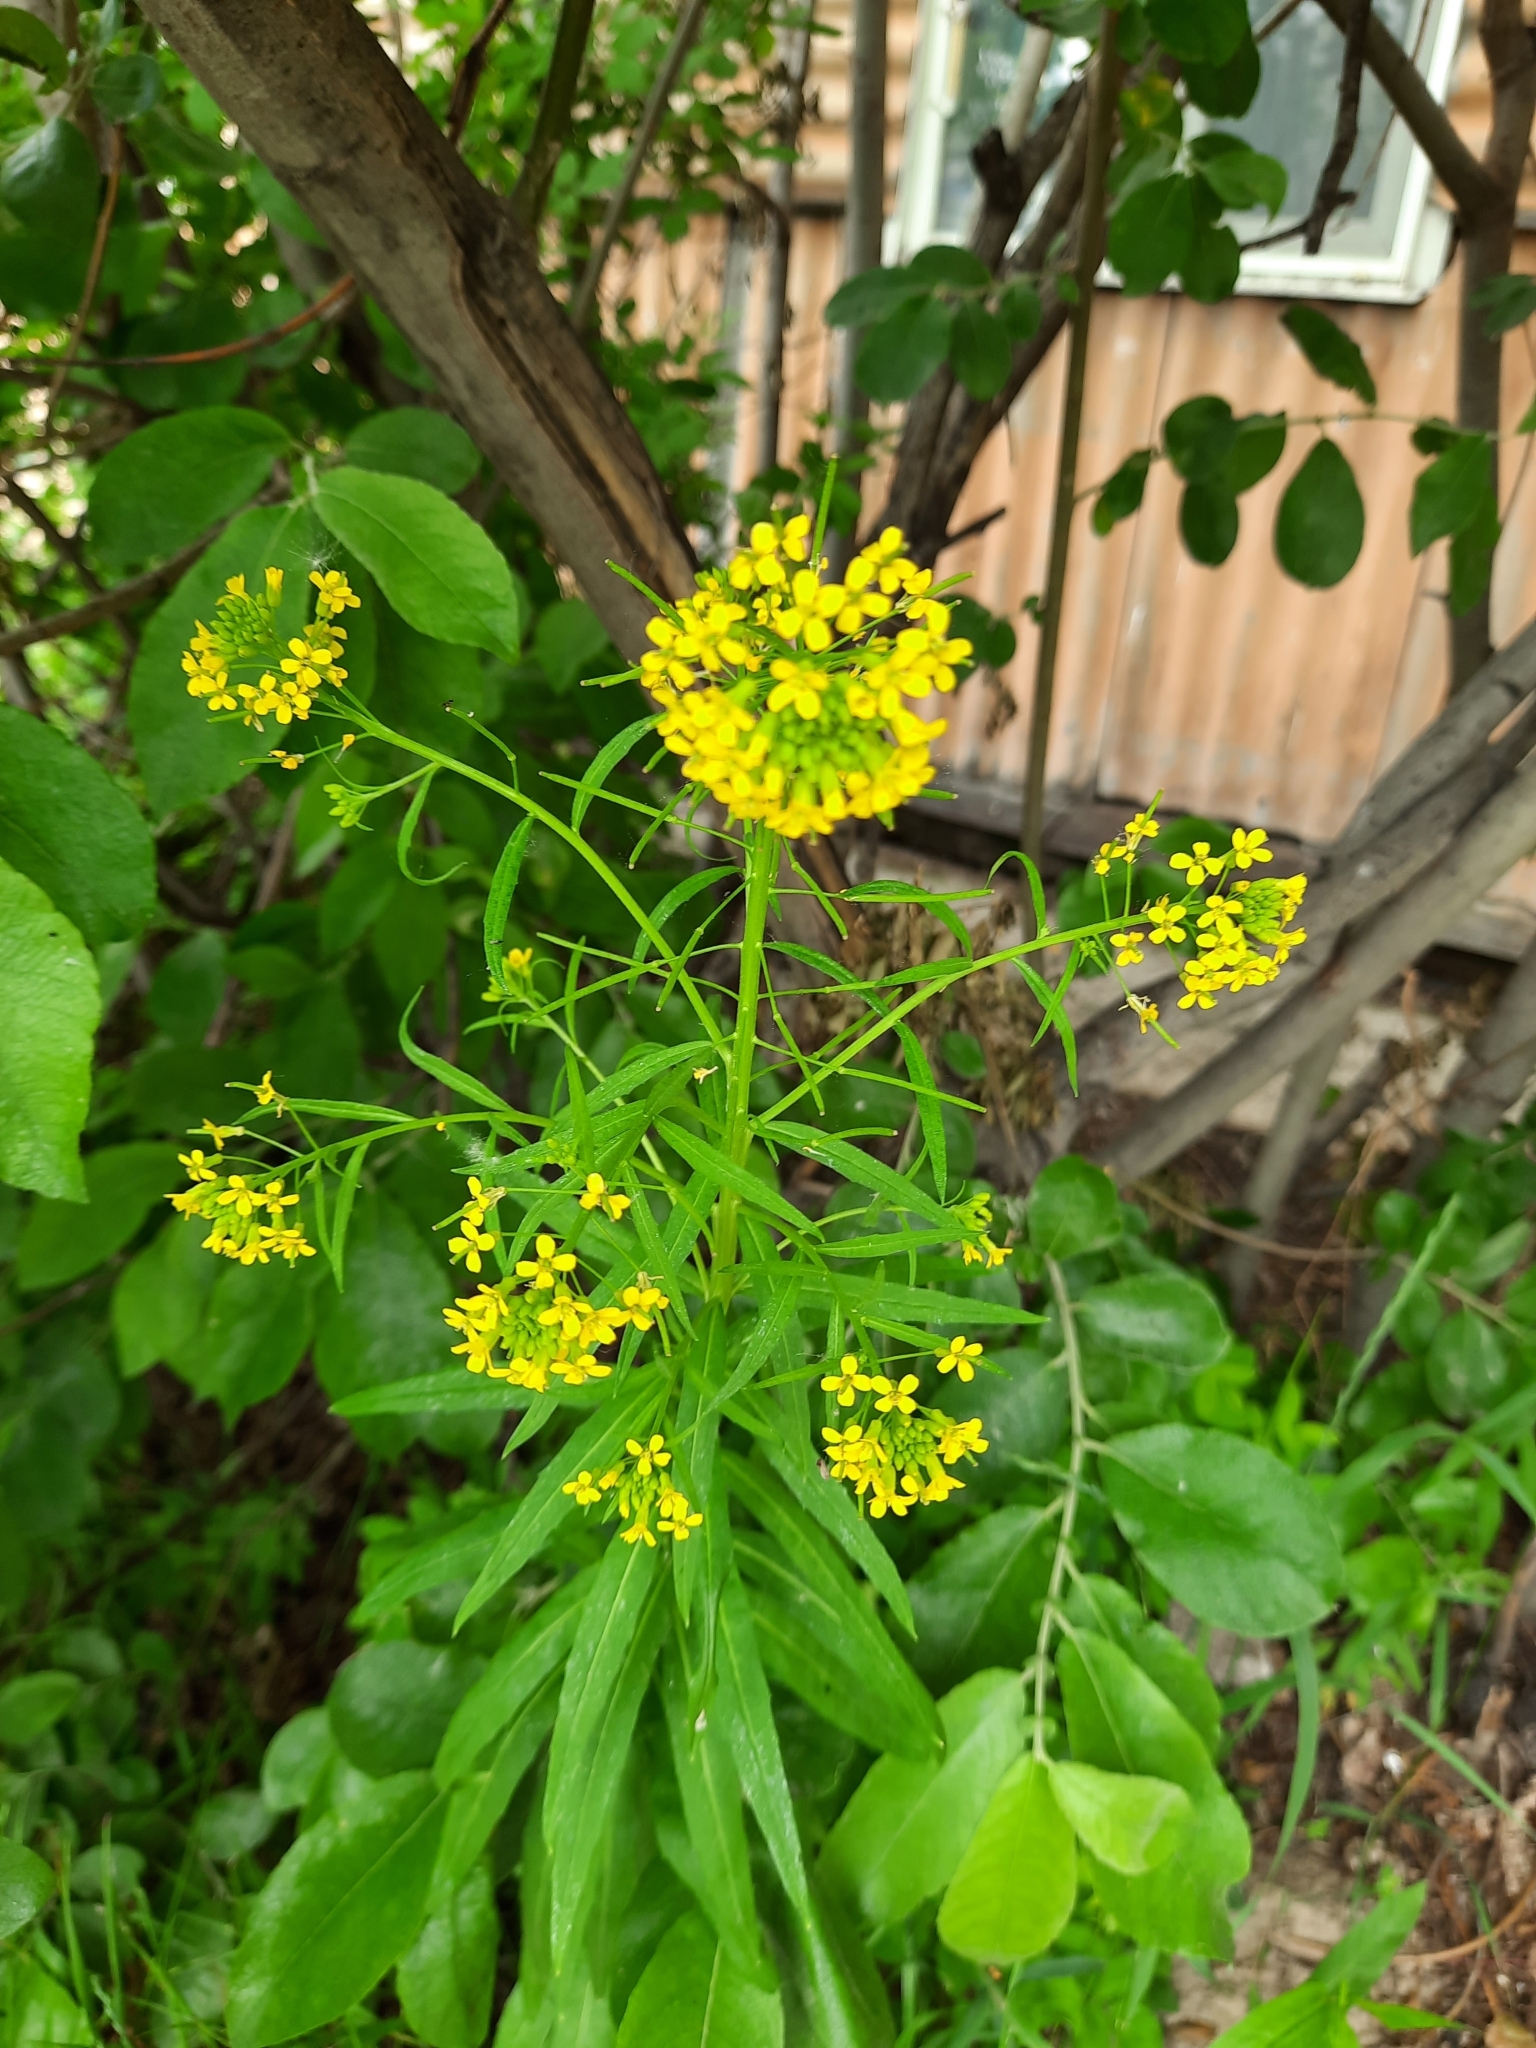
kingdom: Plantae
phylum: Tracheophyta
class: Magnoliopsida
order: Brassicales
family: Brassicaceae
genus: Erysimum
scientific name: Erysimum cheiranthoides
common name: Treacle mustard
